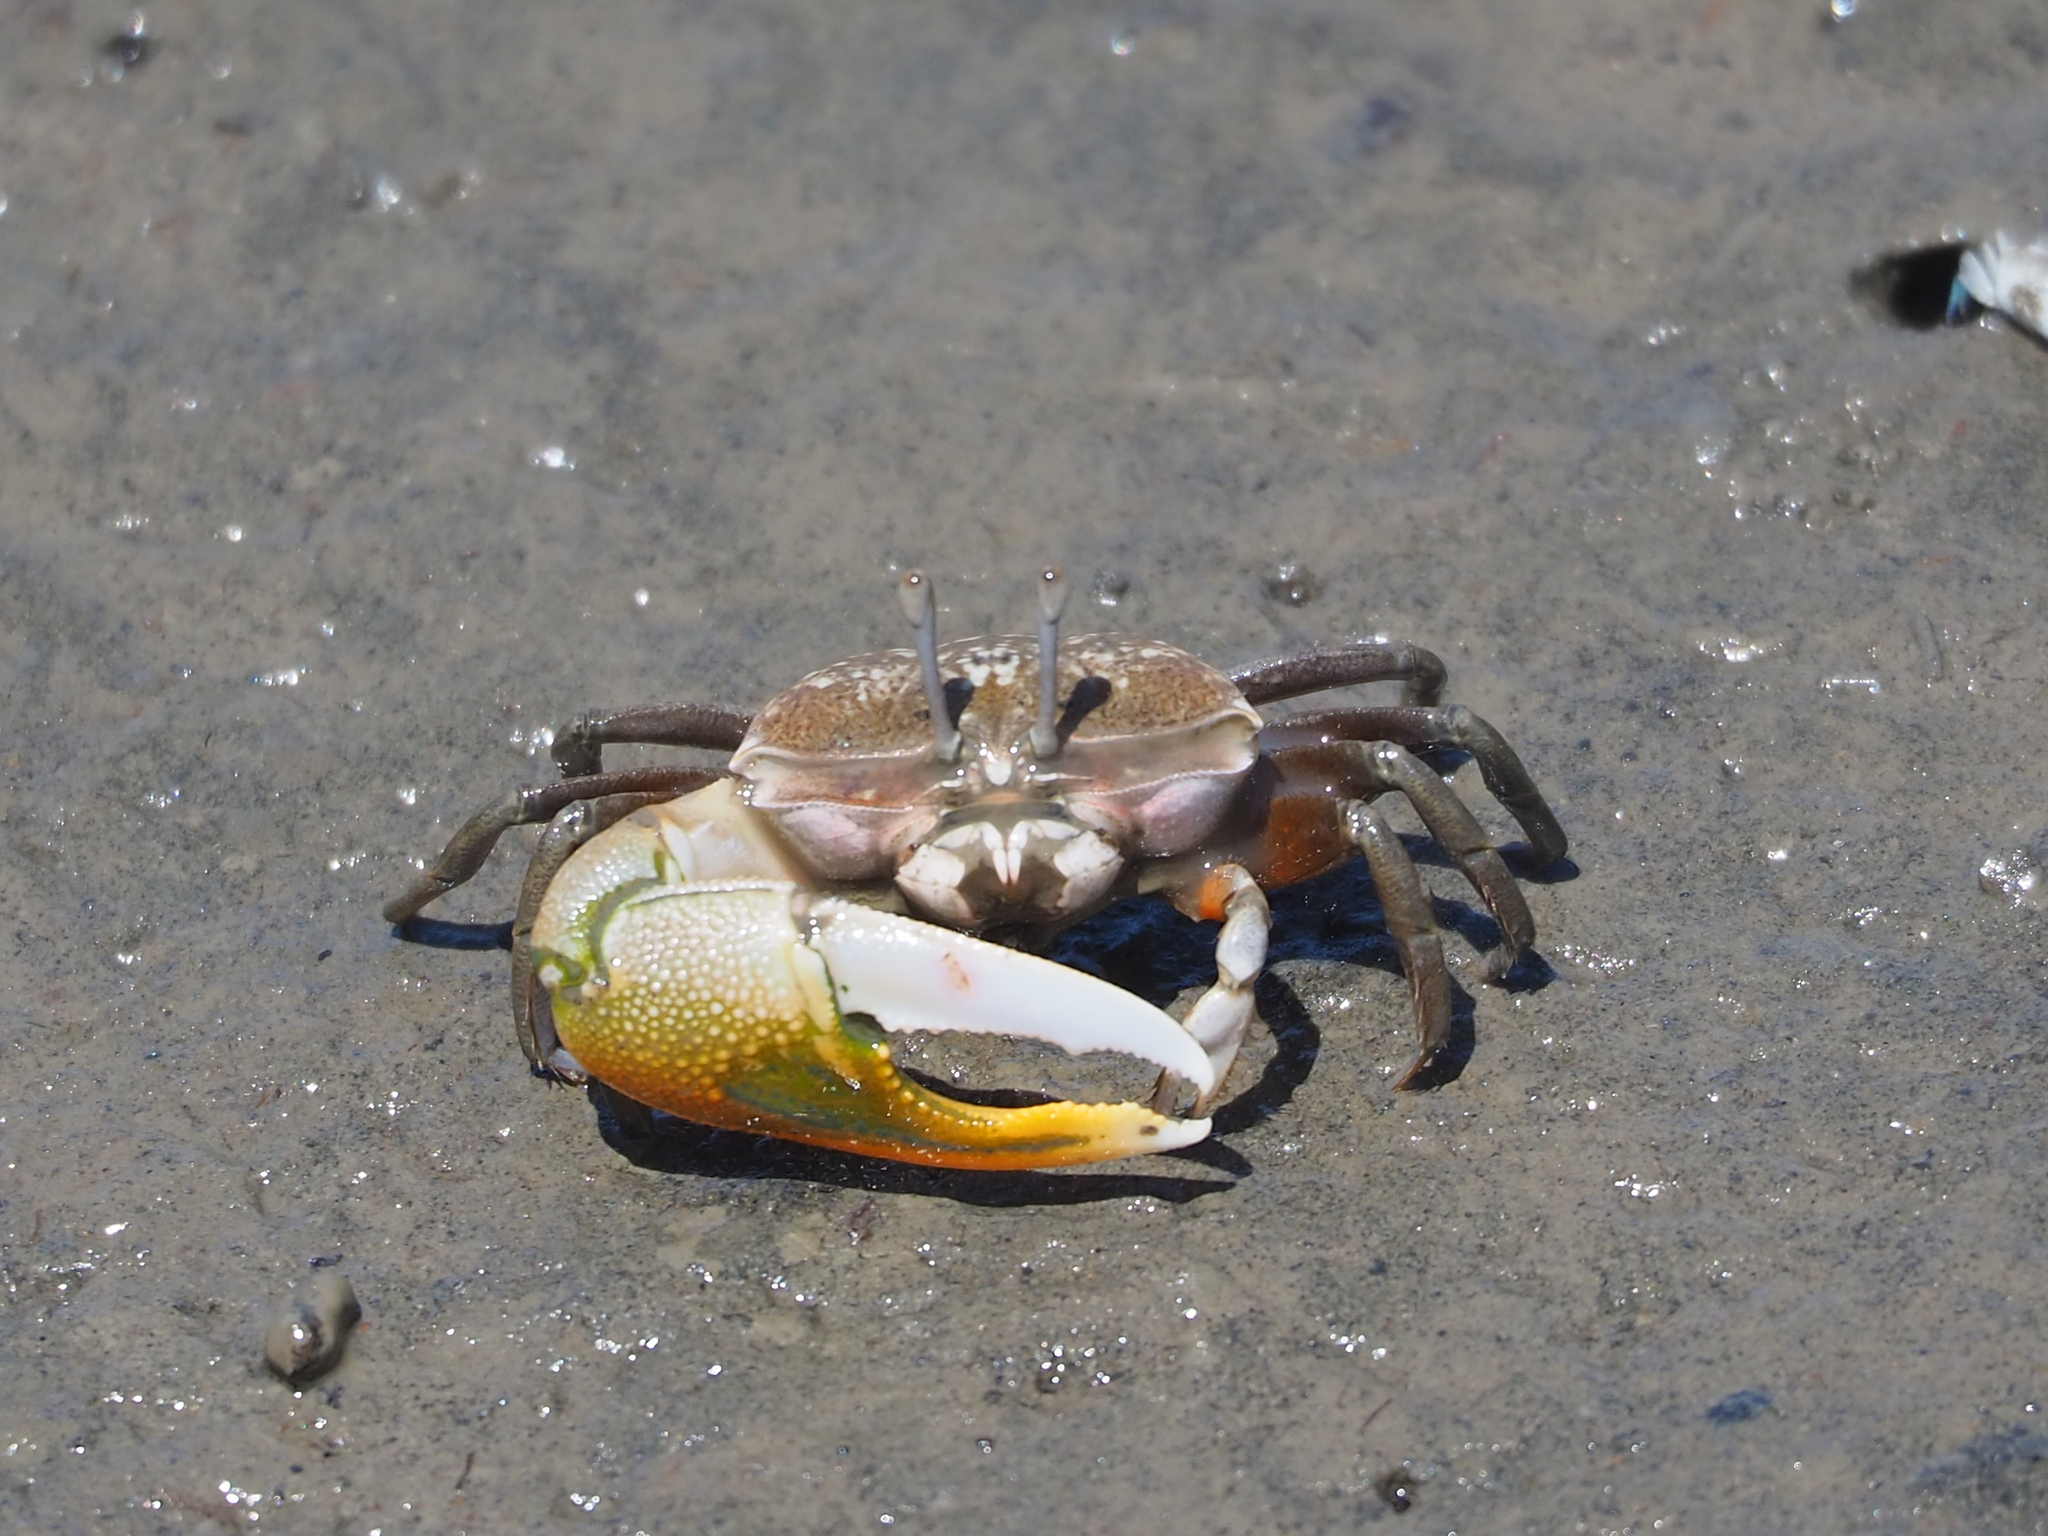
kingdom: Animalia
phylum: Arthropoda
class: Malacostraca
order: Decapoda
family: Ocypodidae
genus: Gelasimus
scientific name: Gelasimus borealis
